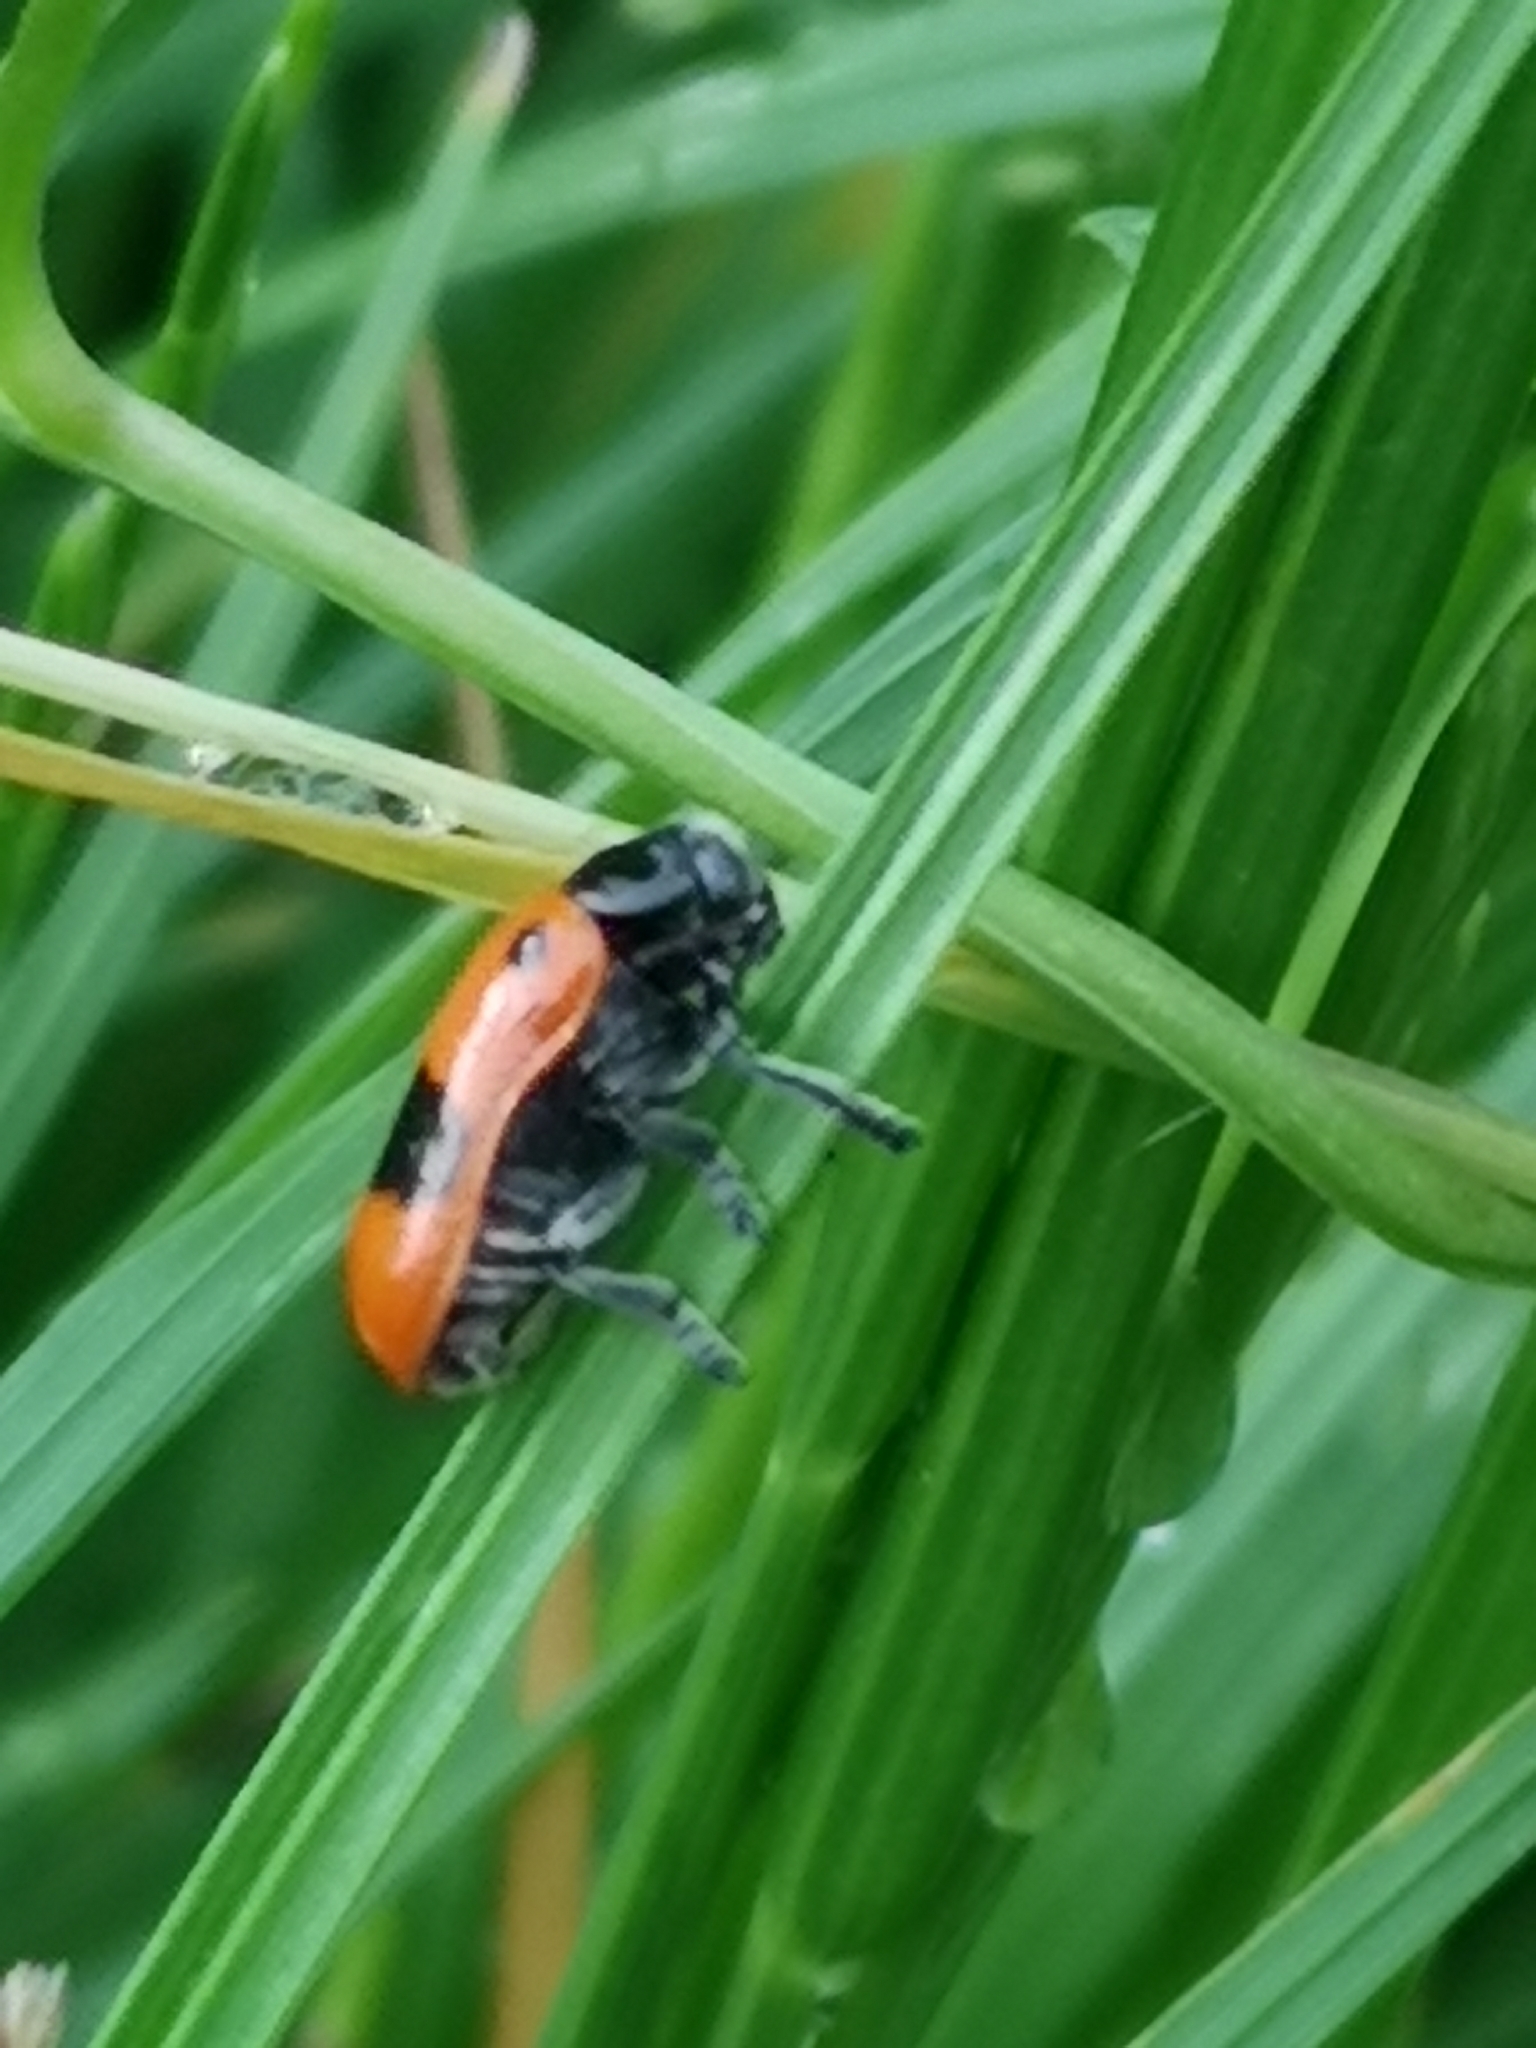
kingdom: Animalia
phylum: Arthropoda
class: Insecta
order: Coleoptera
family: Chrysomelidae
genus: Clytra
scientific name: Clytra laeviuscula
